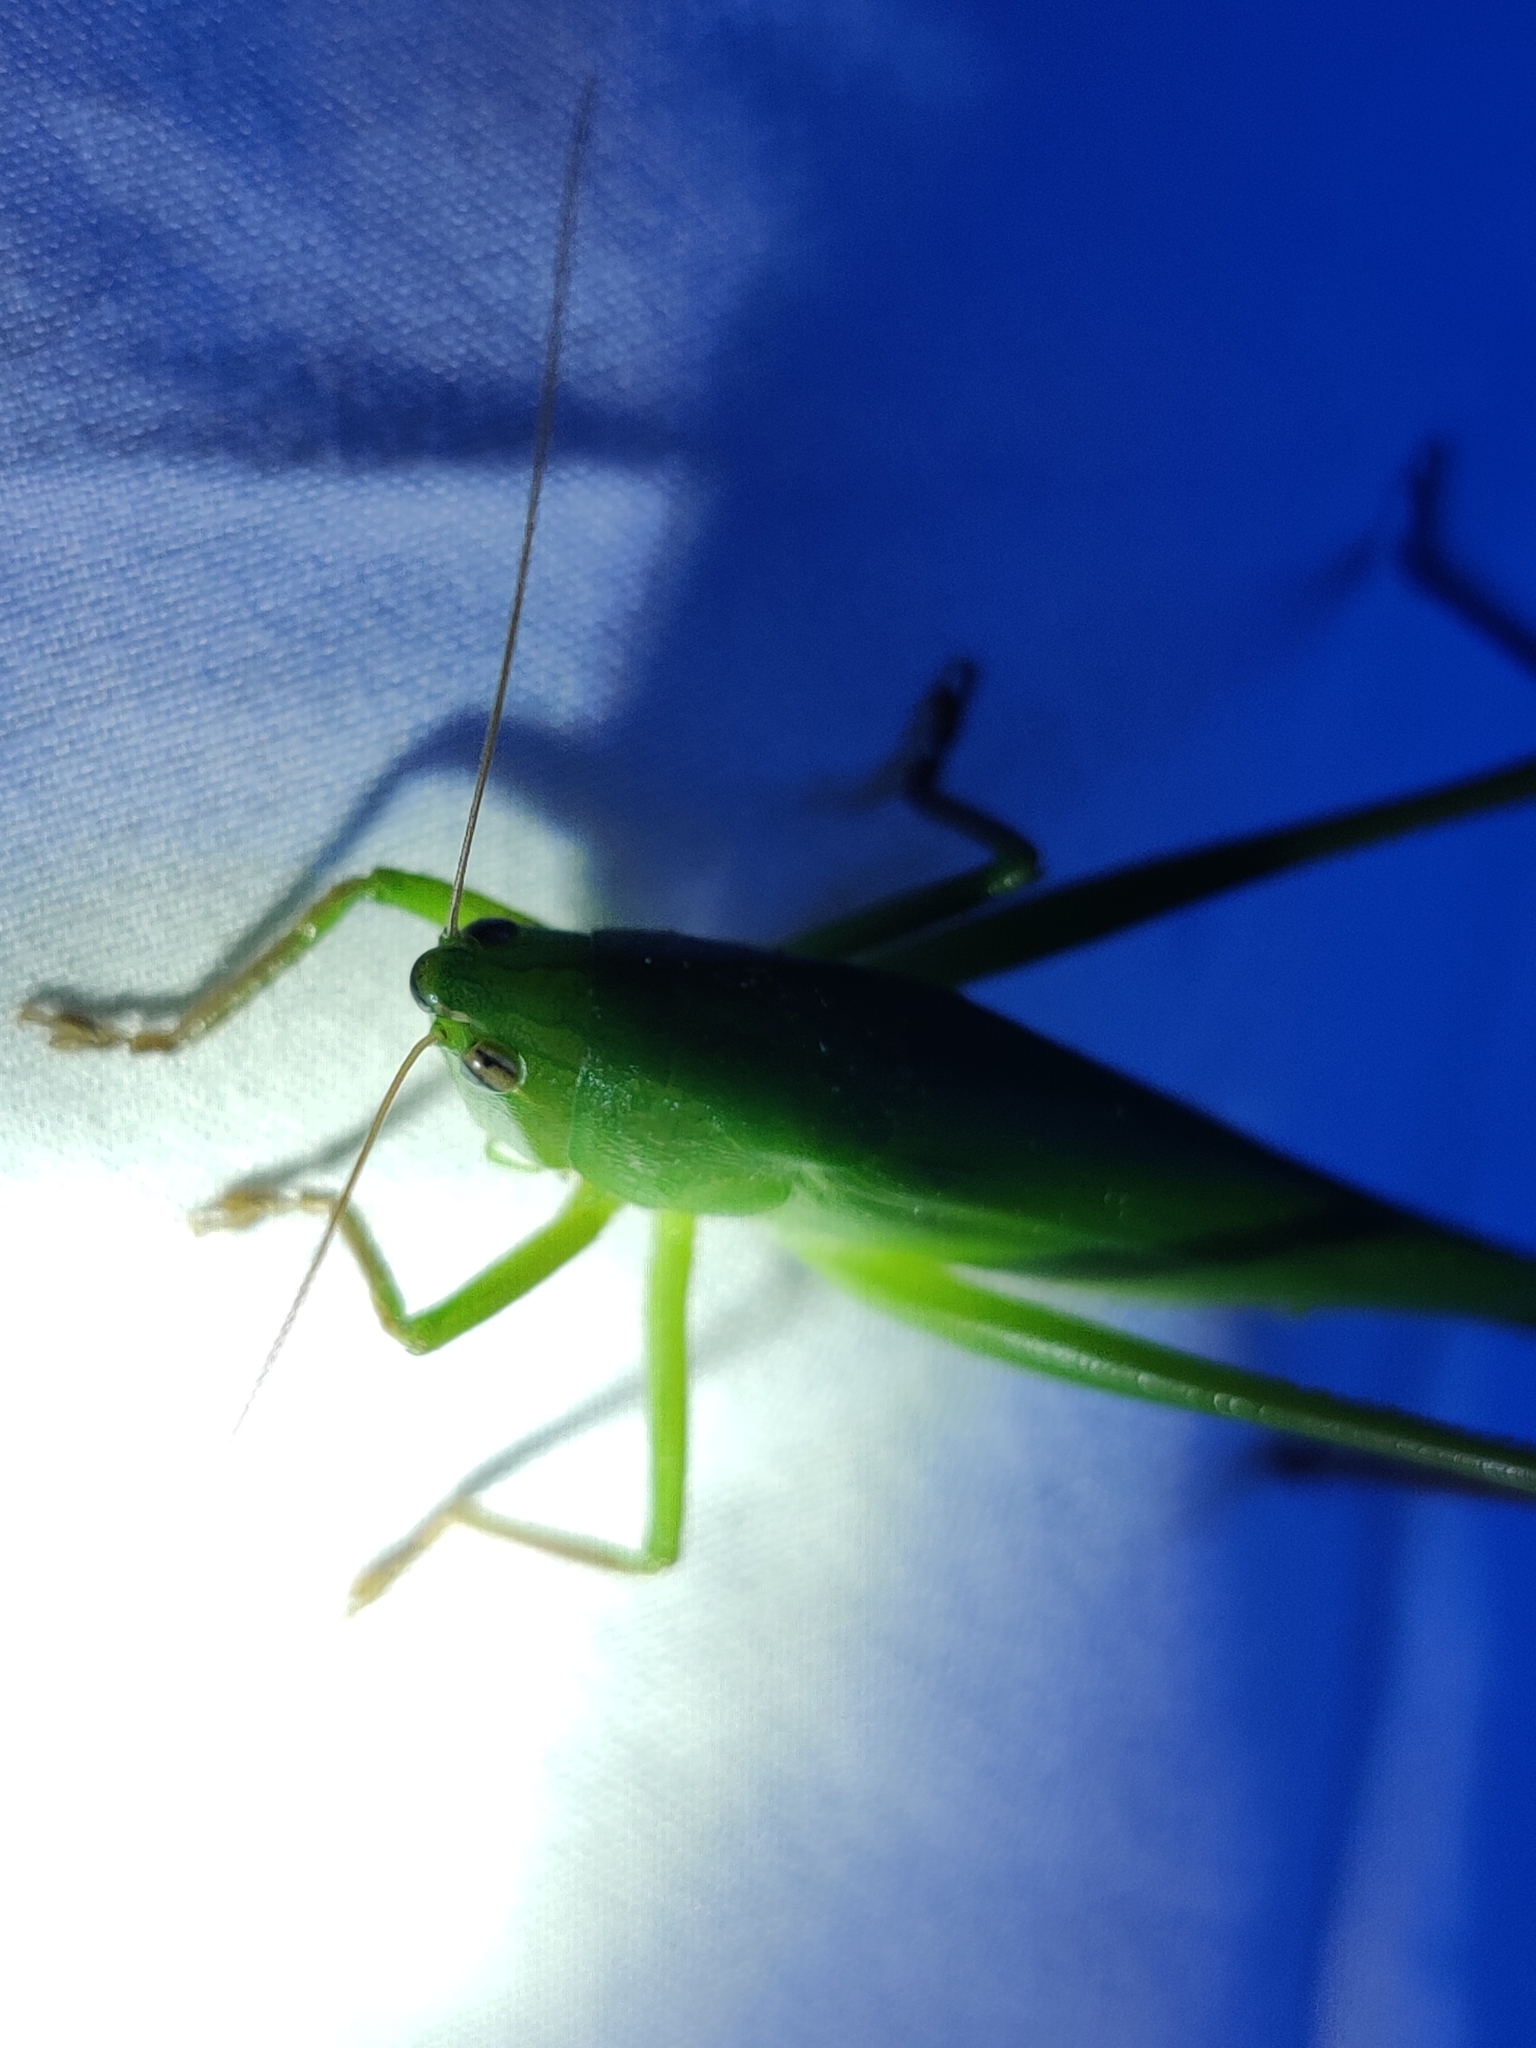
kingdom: Animalia
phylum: Arthropoda
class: Insecta
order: Orthoptera
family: Tettigoniidae
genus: Neoconocephalus
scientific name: Neoconocephalus triops
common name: Broad-tipped conehead
